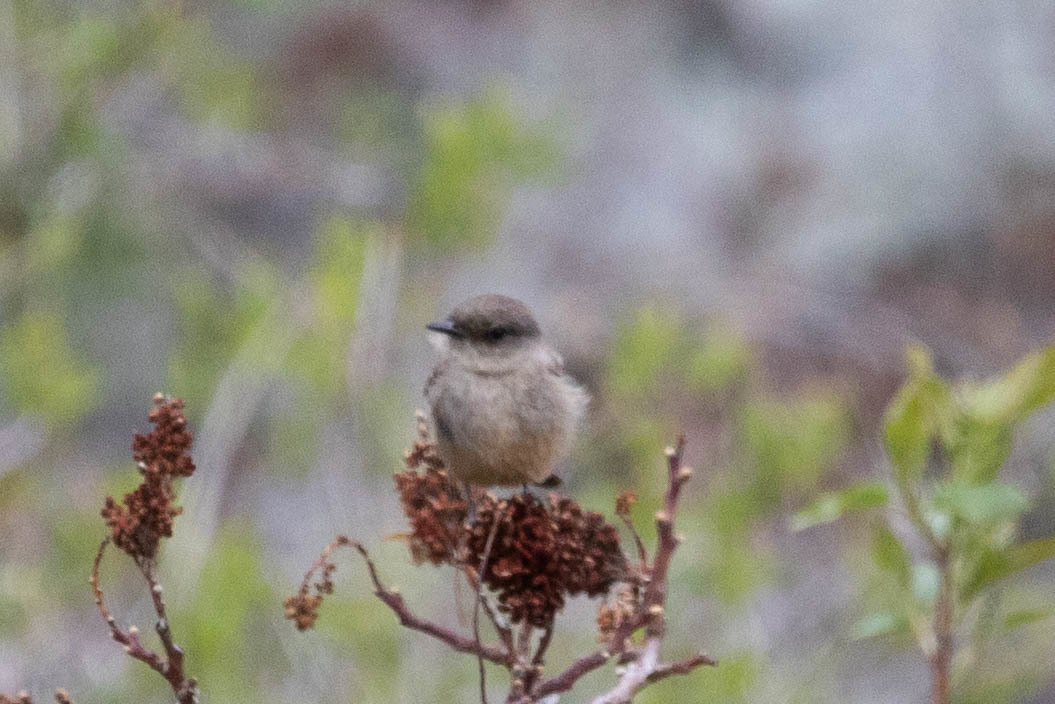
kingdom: Animalia
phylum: Chordata
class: Aves
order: Passeriformes
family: Tyrannidae
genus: Sayornis
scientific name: Sayornis saya
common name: Say's phoebe
